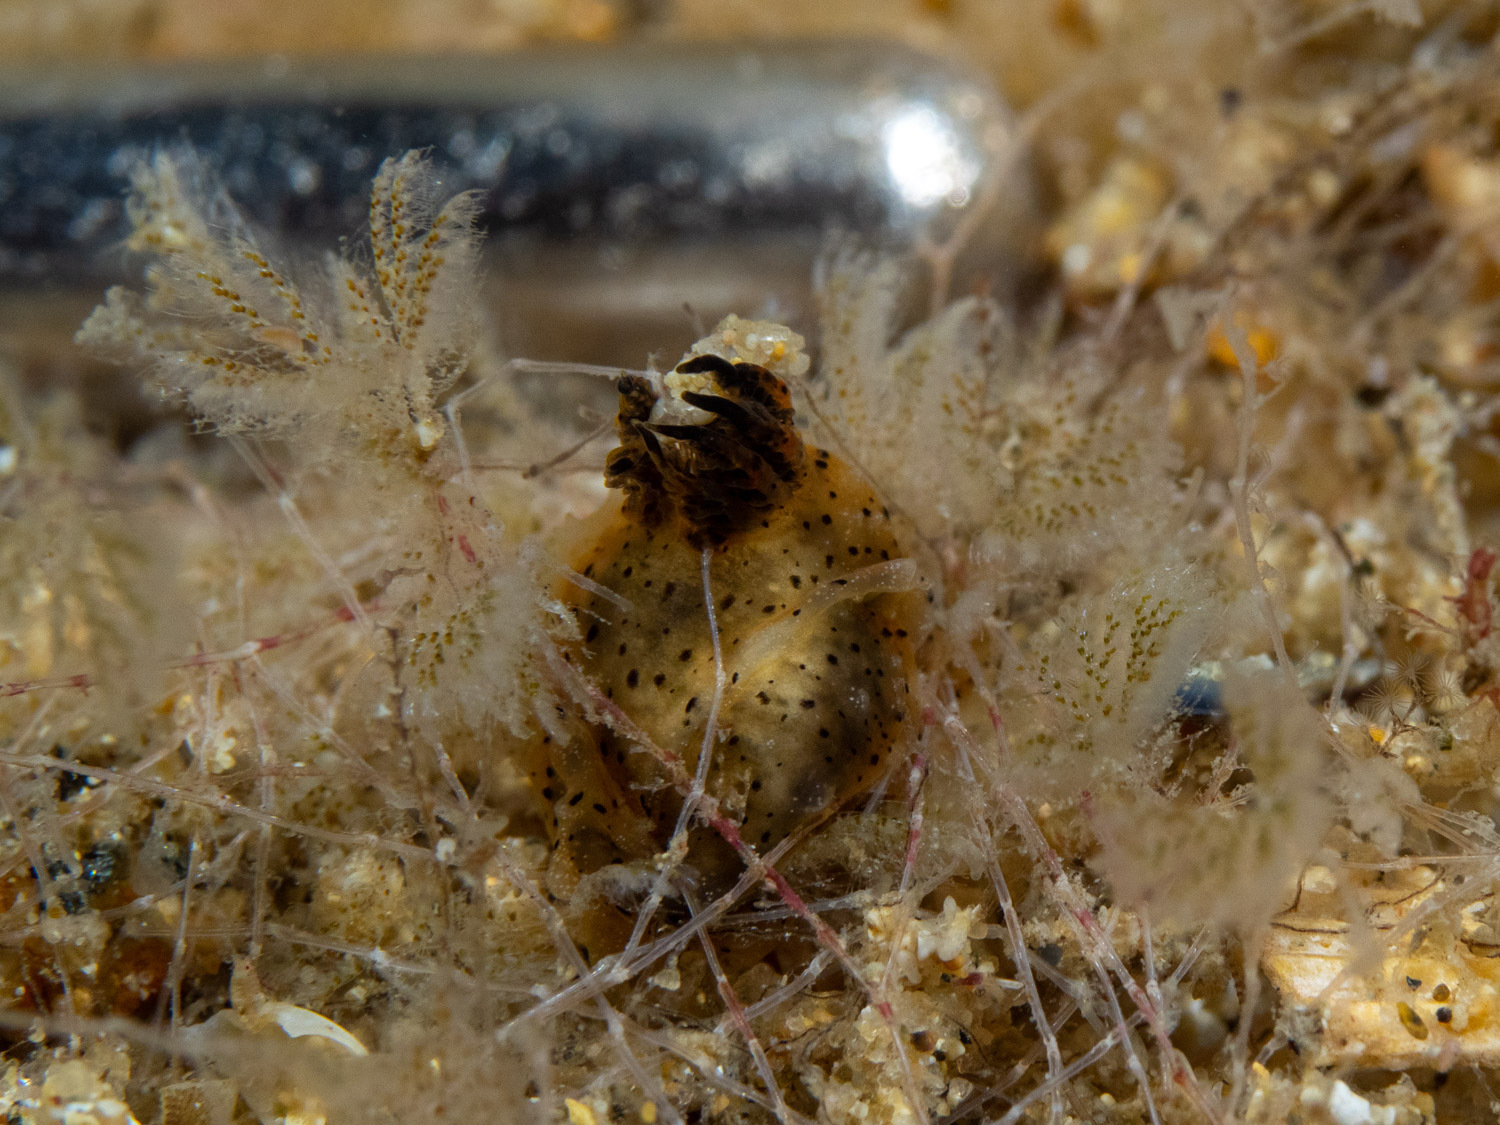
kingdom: Animalia
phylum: Mollusca
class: Gastropoda
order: Nudibranchia
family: Polyceridae
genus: Polycera
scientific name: Polycera melanosticta
